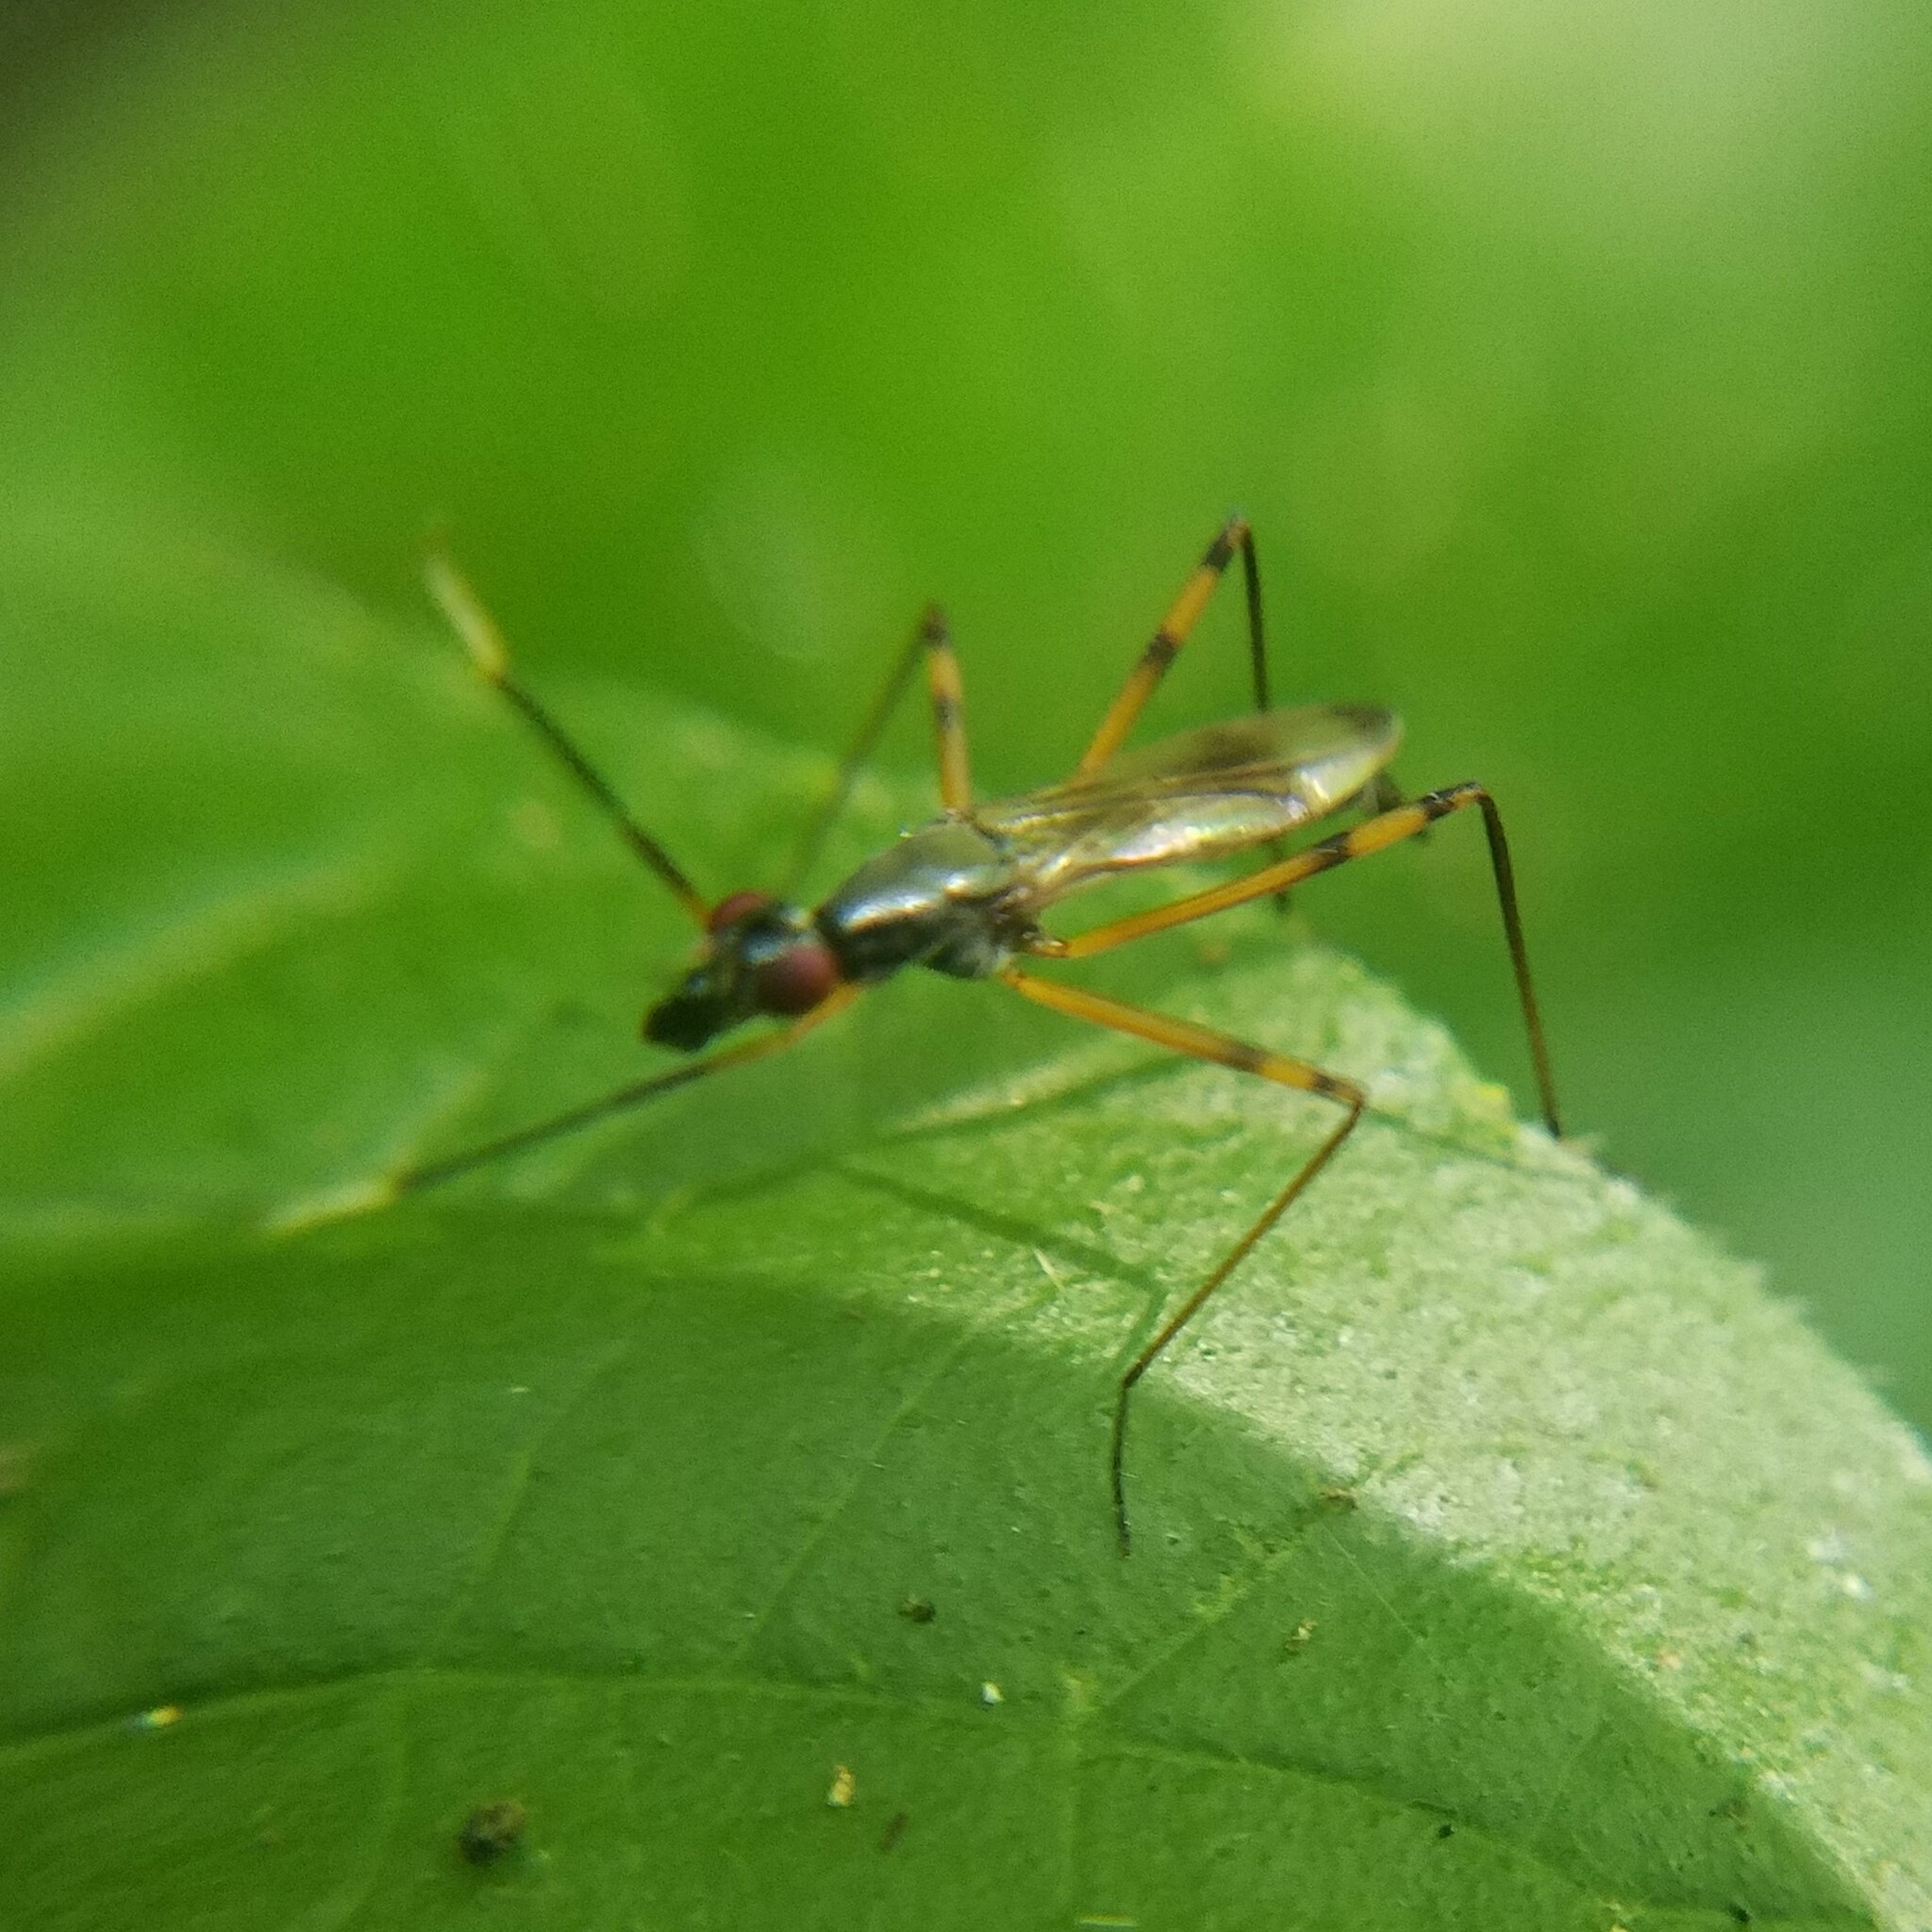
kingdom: Animalia
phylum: Arthropoda
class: Insecta
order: Diptera
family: Micropezidae
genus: Rainieria
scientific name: Rainieria antennaepes
